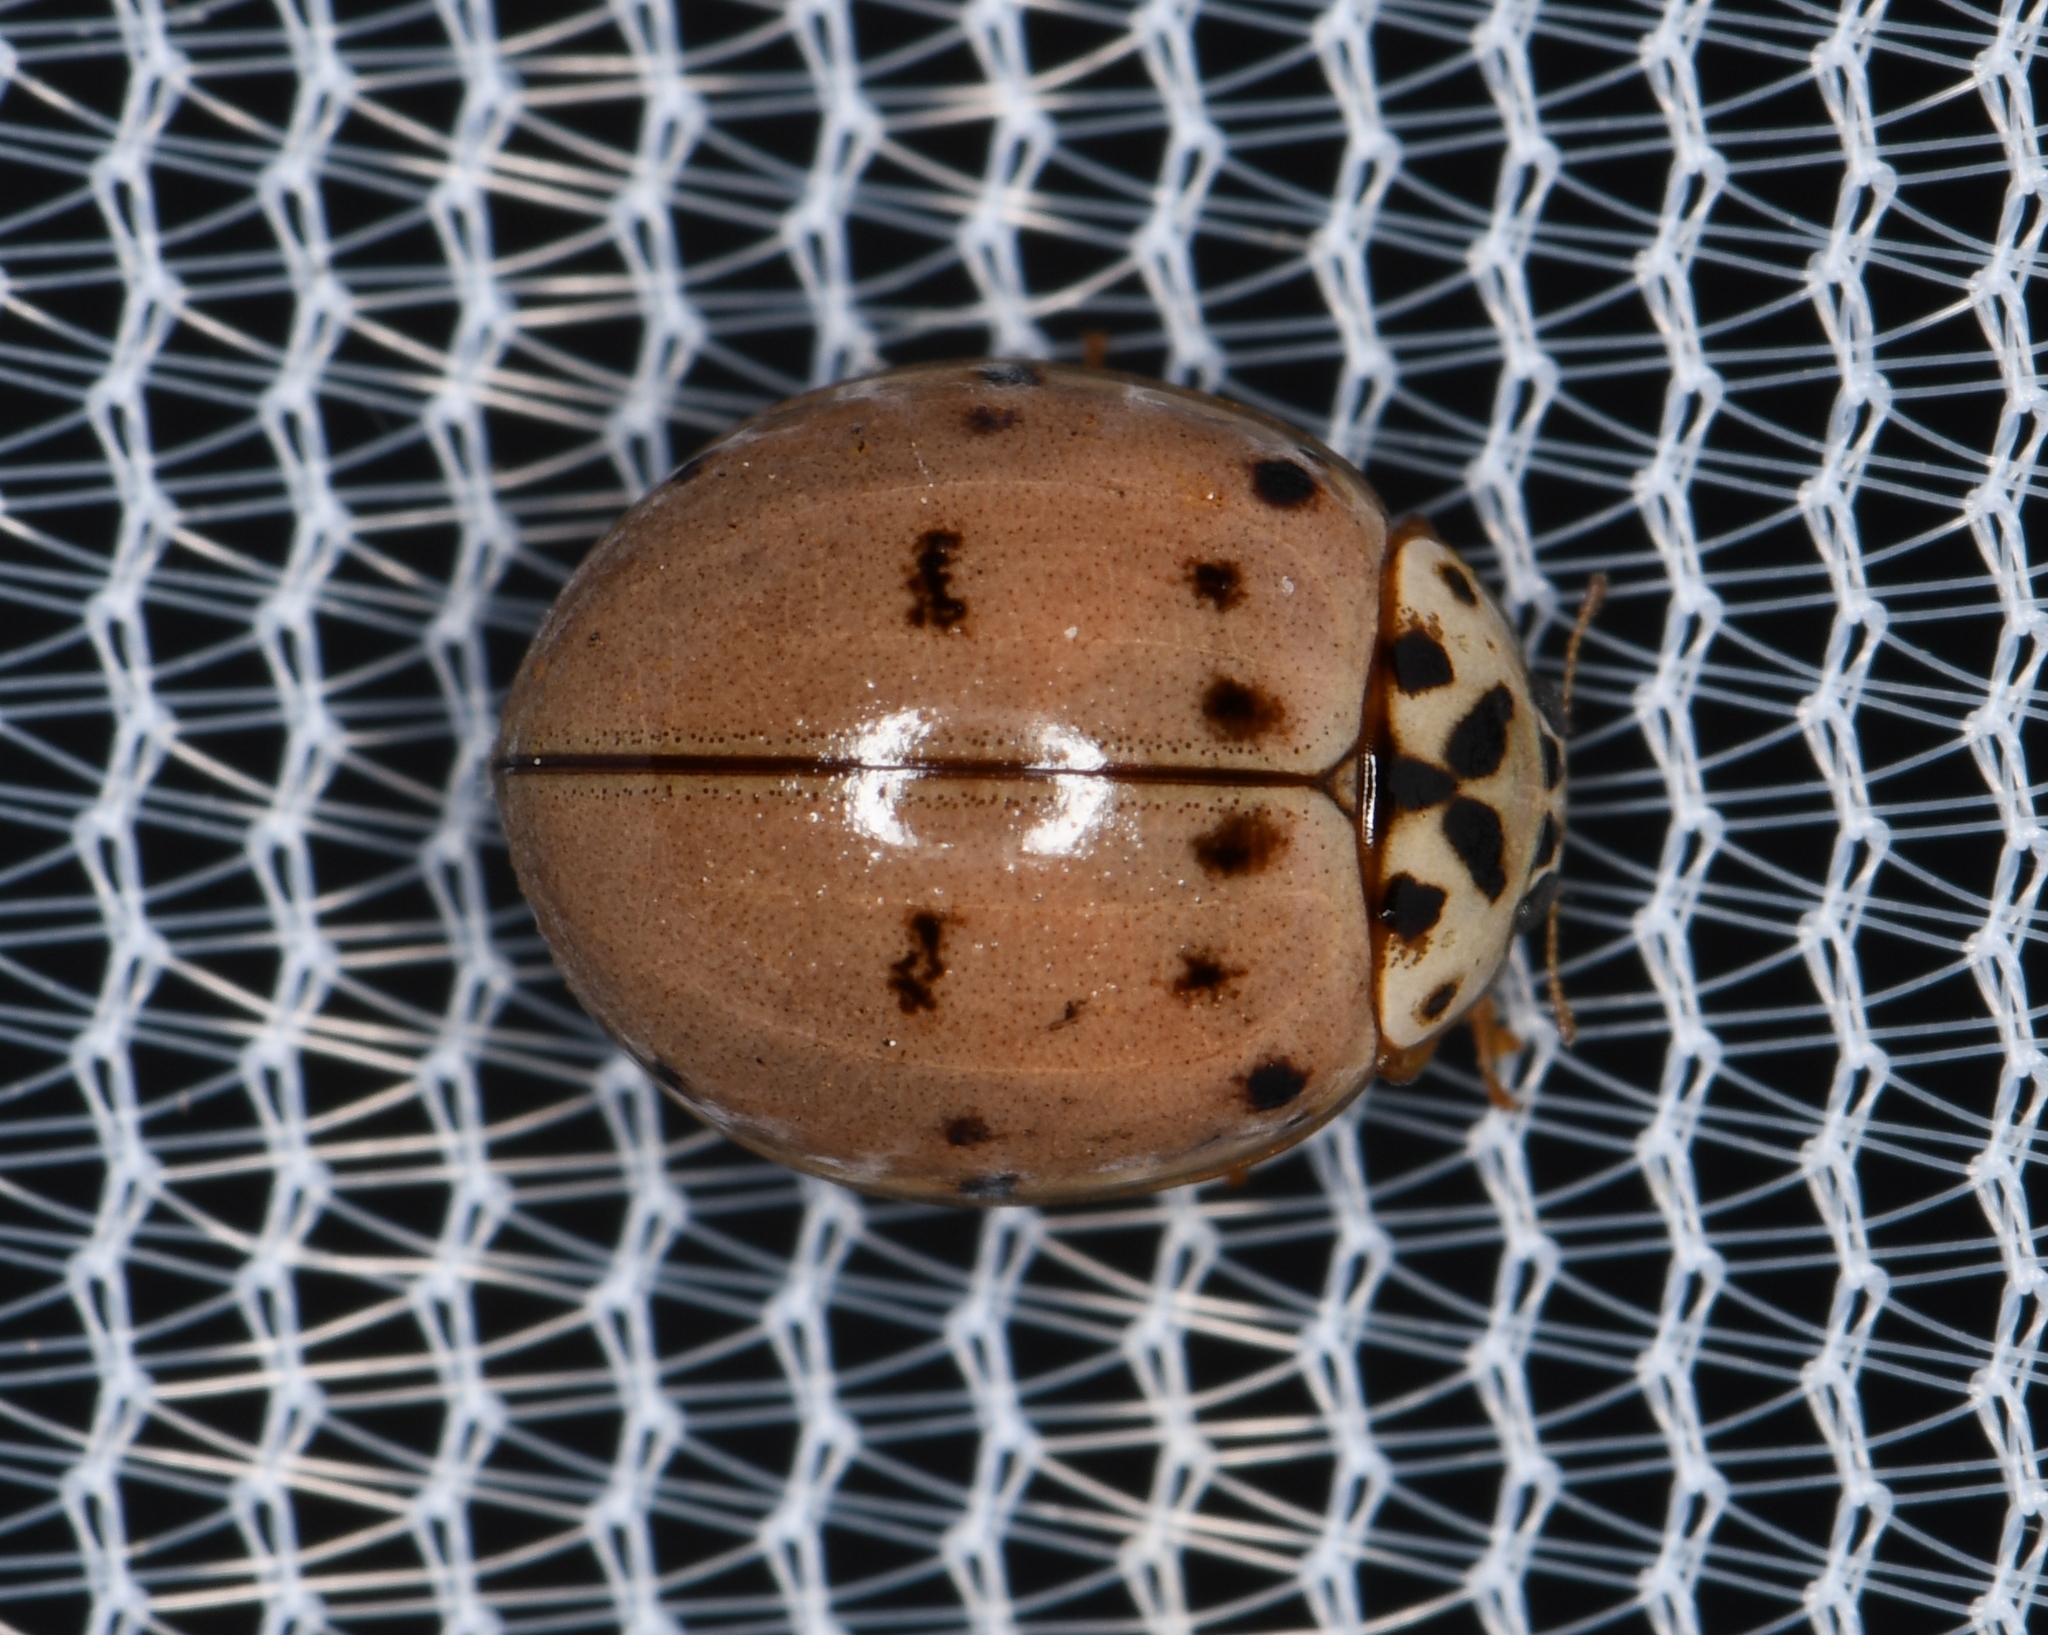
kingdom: Animalia
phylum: Arthropoda
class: Insecta
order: Coleoptera
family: Coccinellidae
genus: Olla
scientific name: Olla v-nigrum
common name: Ashy gray lady beetle
